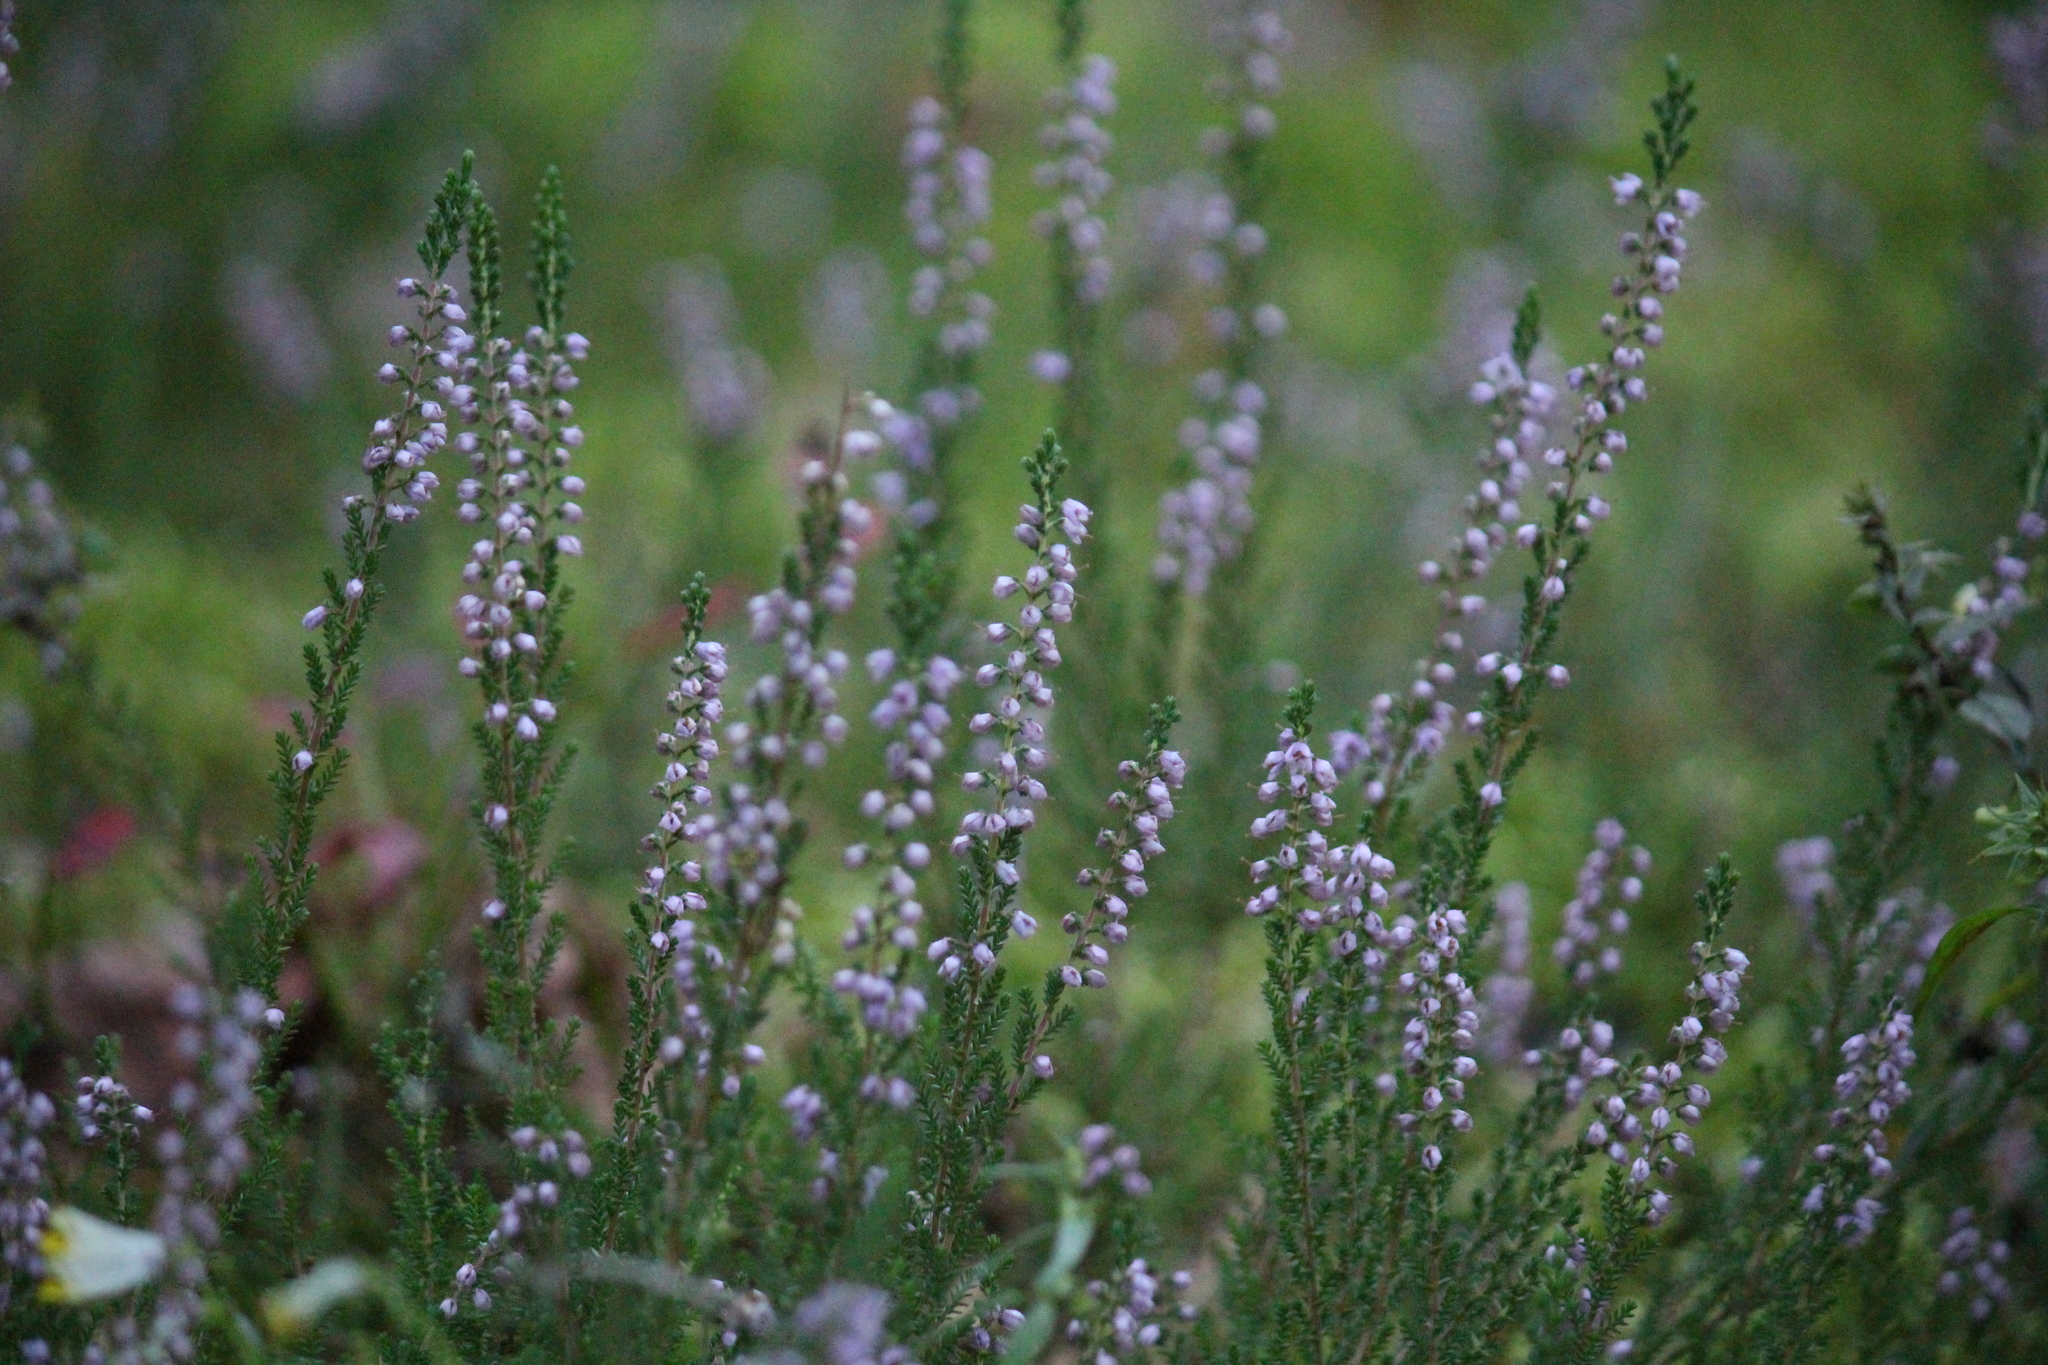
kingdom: Plantae
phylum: Tracheophyta
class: Magnoliopsida
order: Ericales
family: Ericaceae
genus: Calluna
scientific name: Calluna vulgaris
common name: Heather
